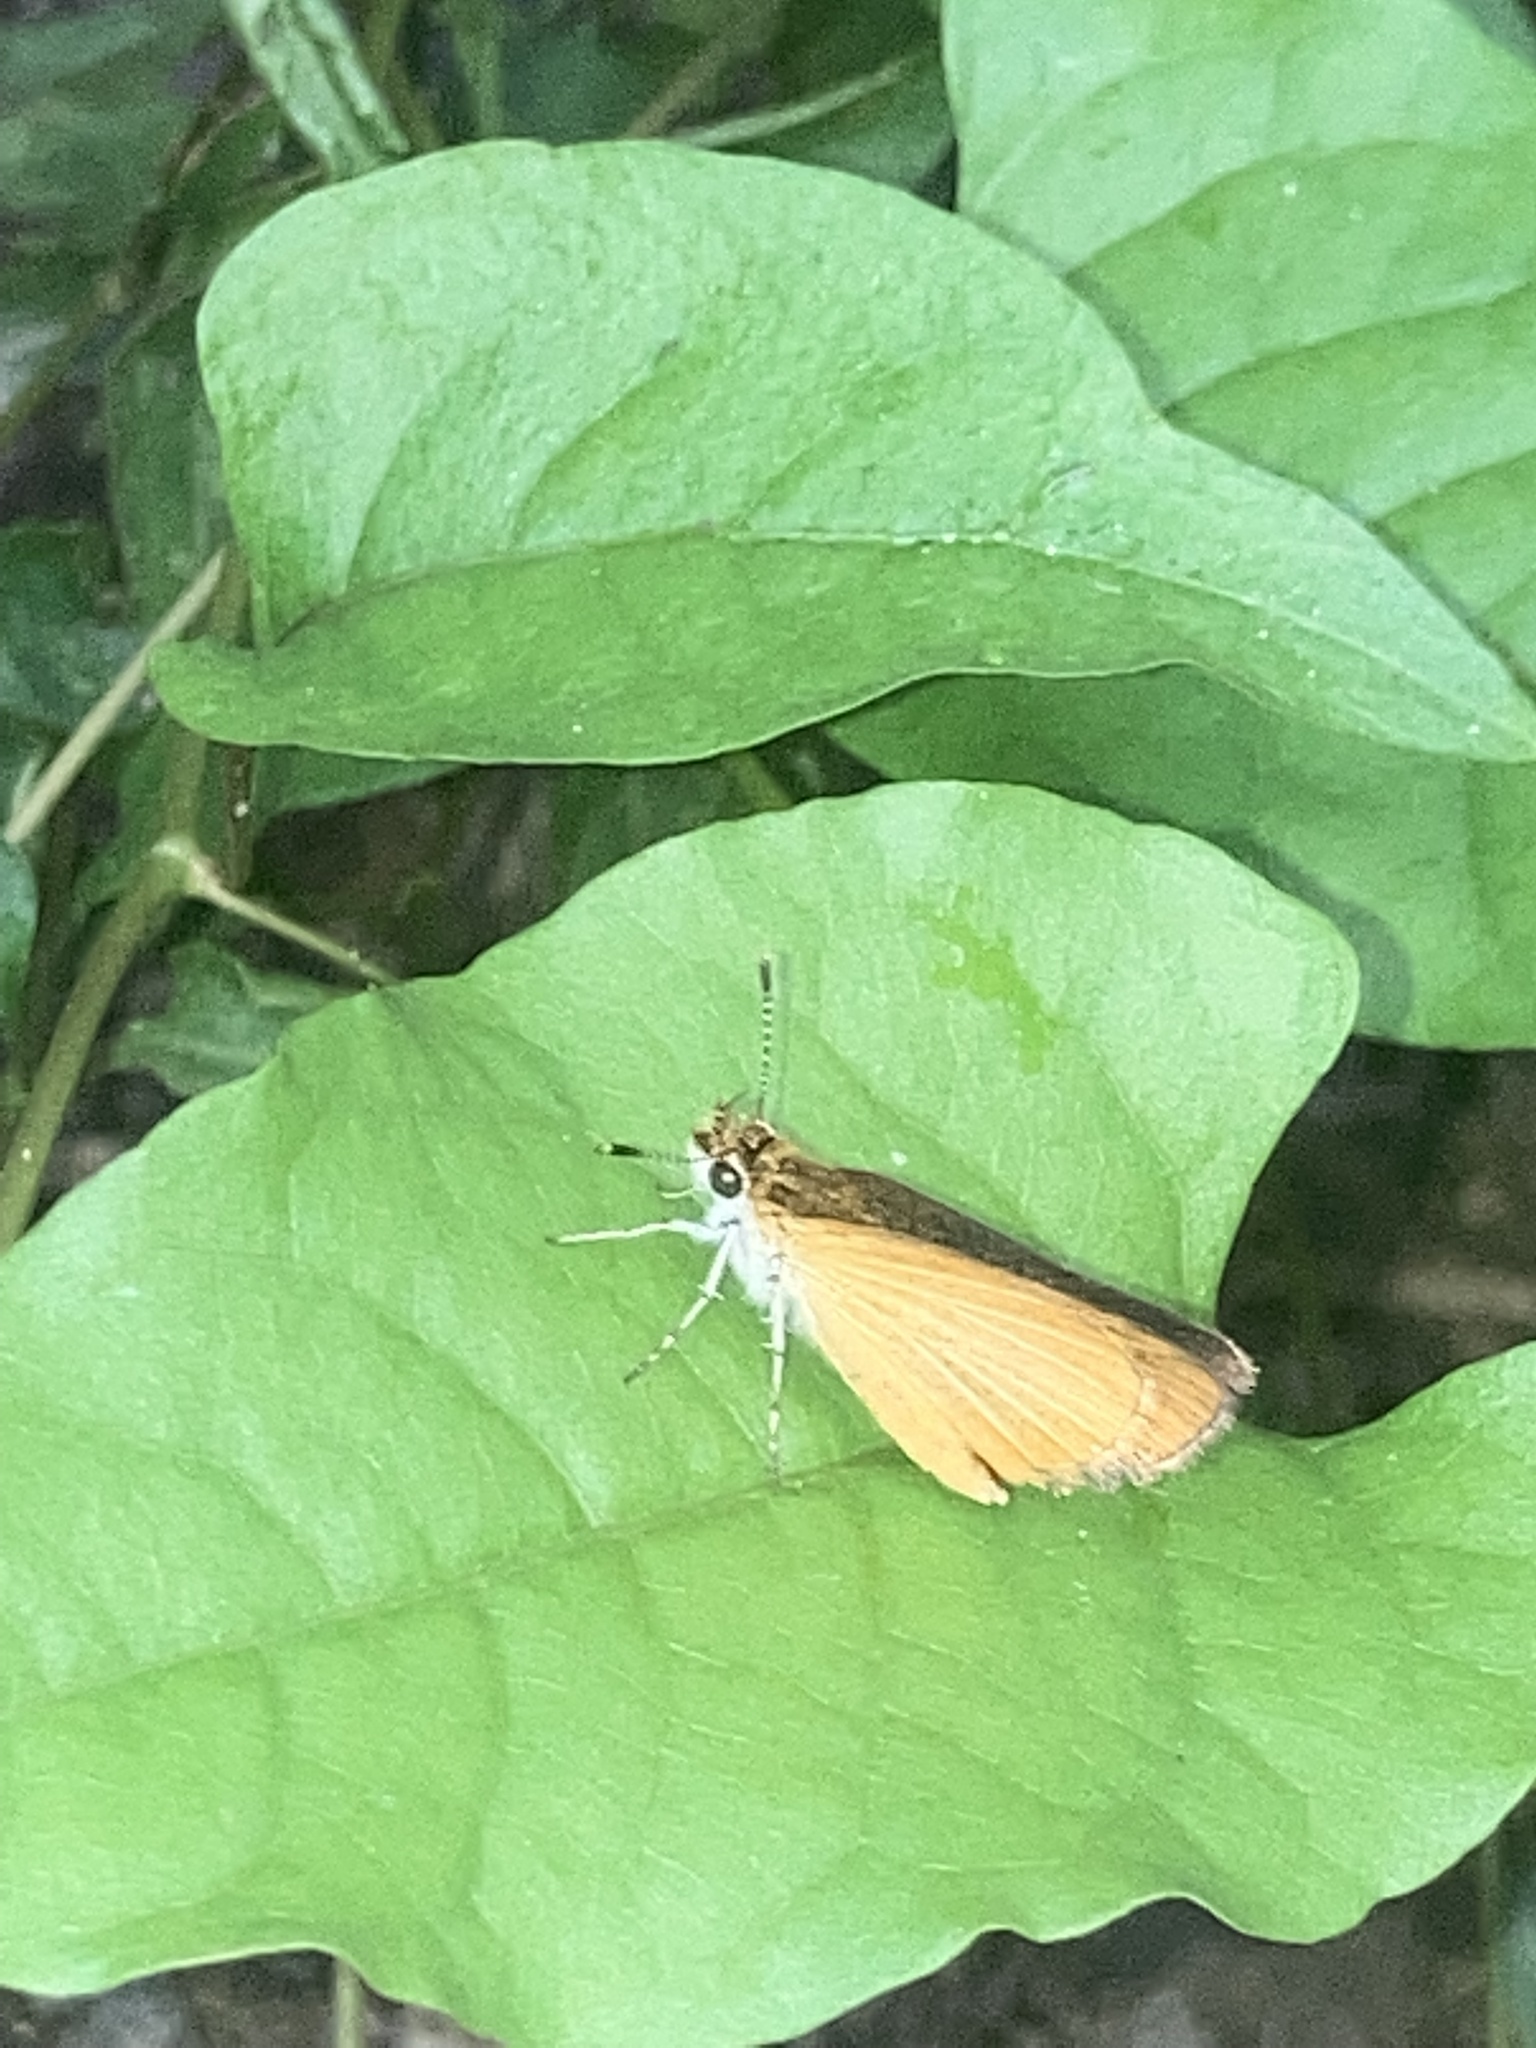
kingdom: Animalia
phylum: Arthropoda
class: Insecta
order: Lepidoptera
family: Hesperiidae
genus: Ancyloxypha
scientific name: Ancyloxypha numitor
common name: Least skipper
